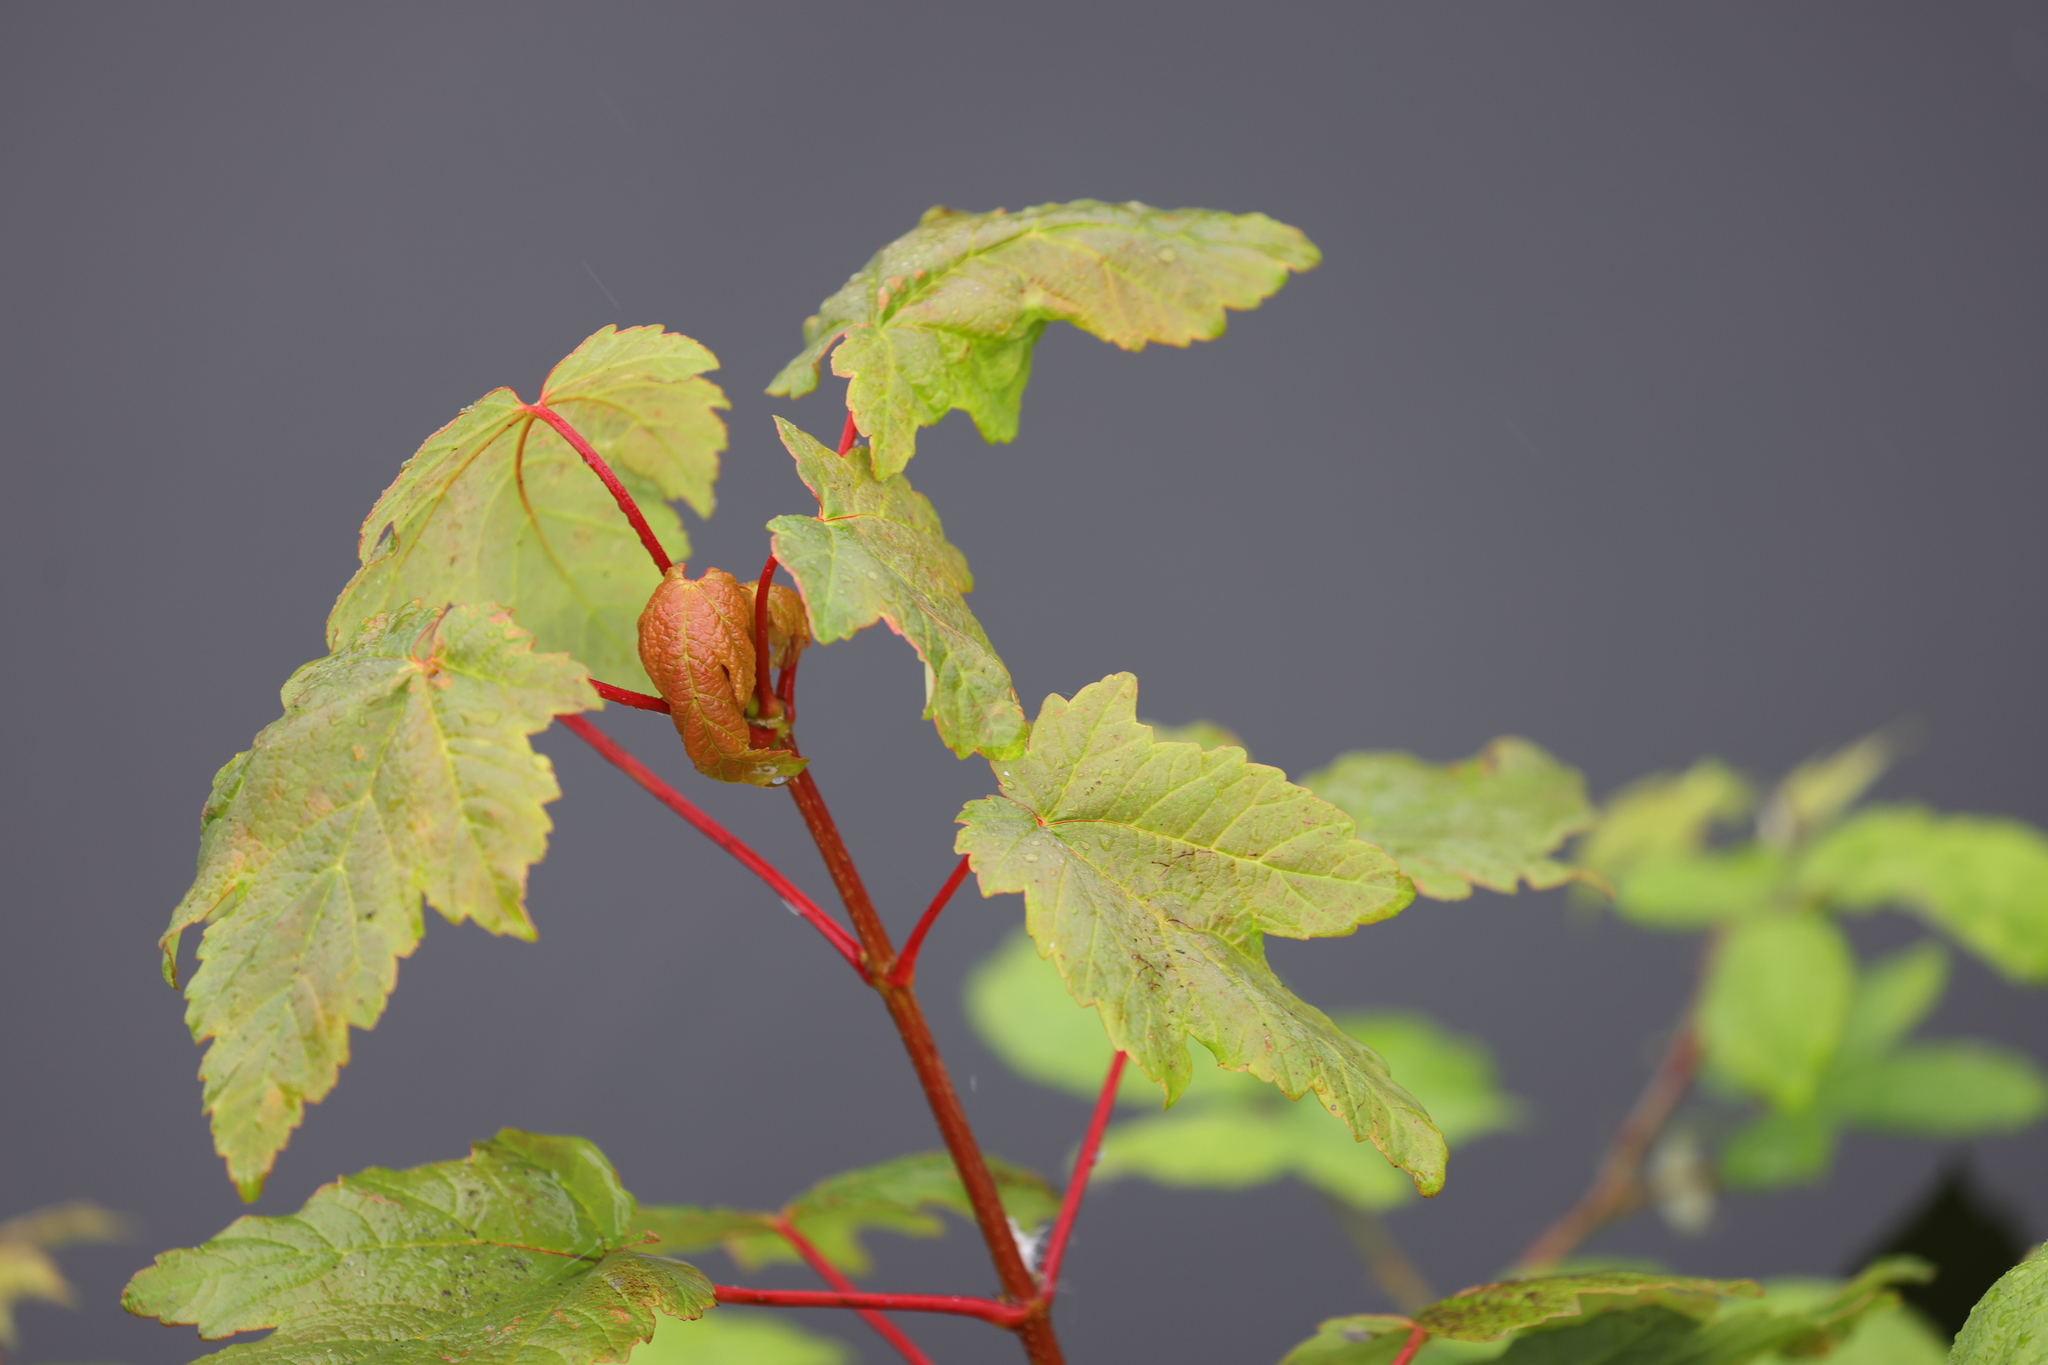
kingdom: Plantae
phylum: Tracheophyta
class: Magnoliopsida
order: Sapindales
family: Sapindaceae
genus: Acer
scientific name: Acer pseudoplatanus
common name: Sycamore
